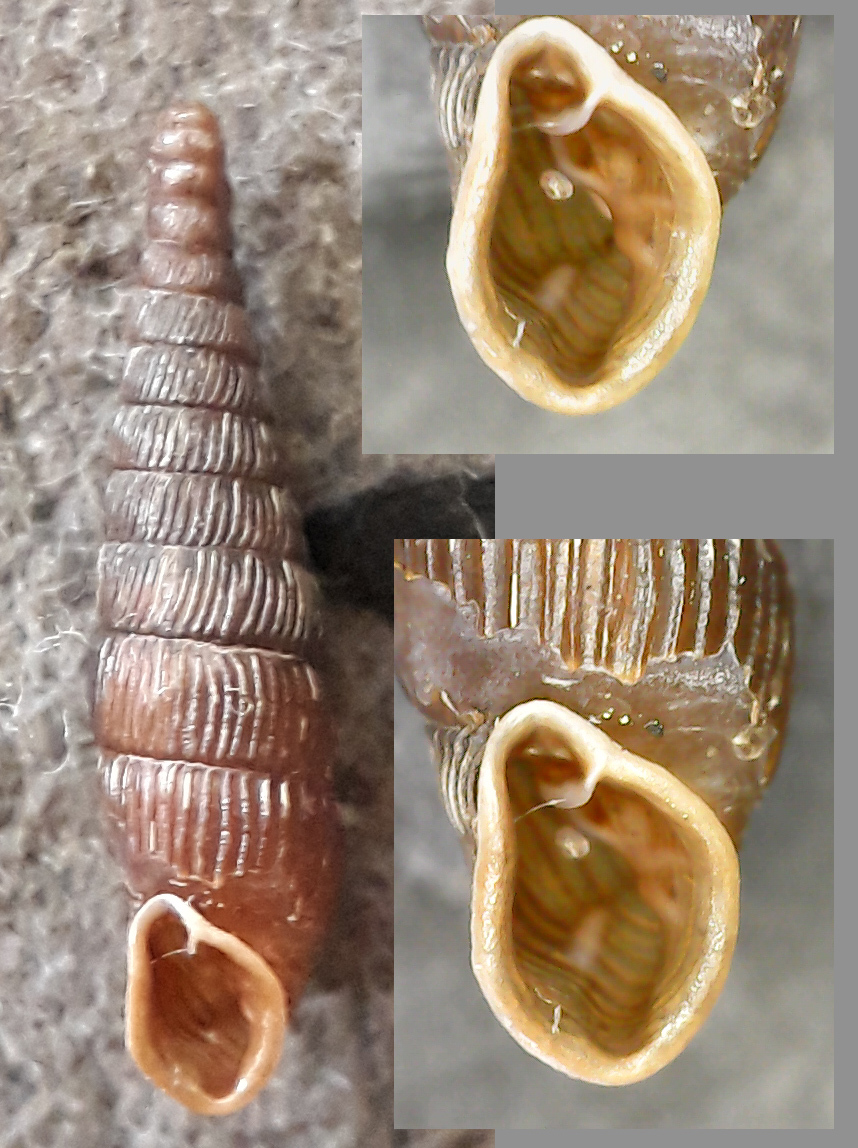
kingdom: Animalia
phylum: Mollusca
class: Gastropoda
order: Stylommatophora
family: Clausiliidae
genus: Clausilia
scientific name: Clausilia pumila
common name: Clublike door snail
